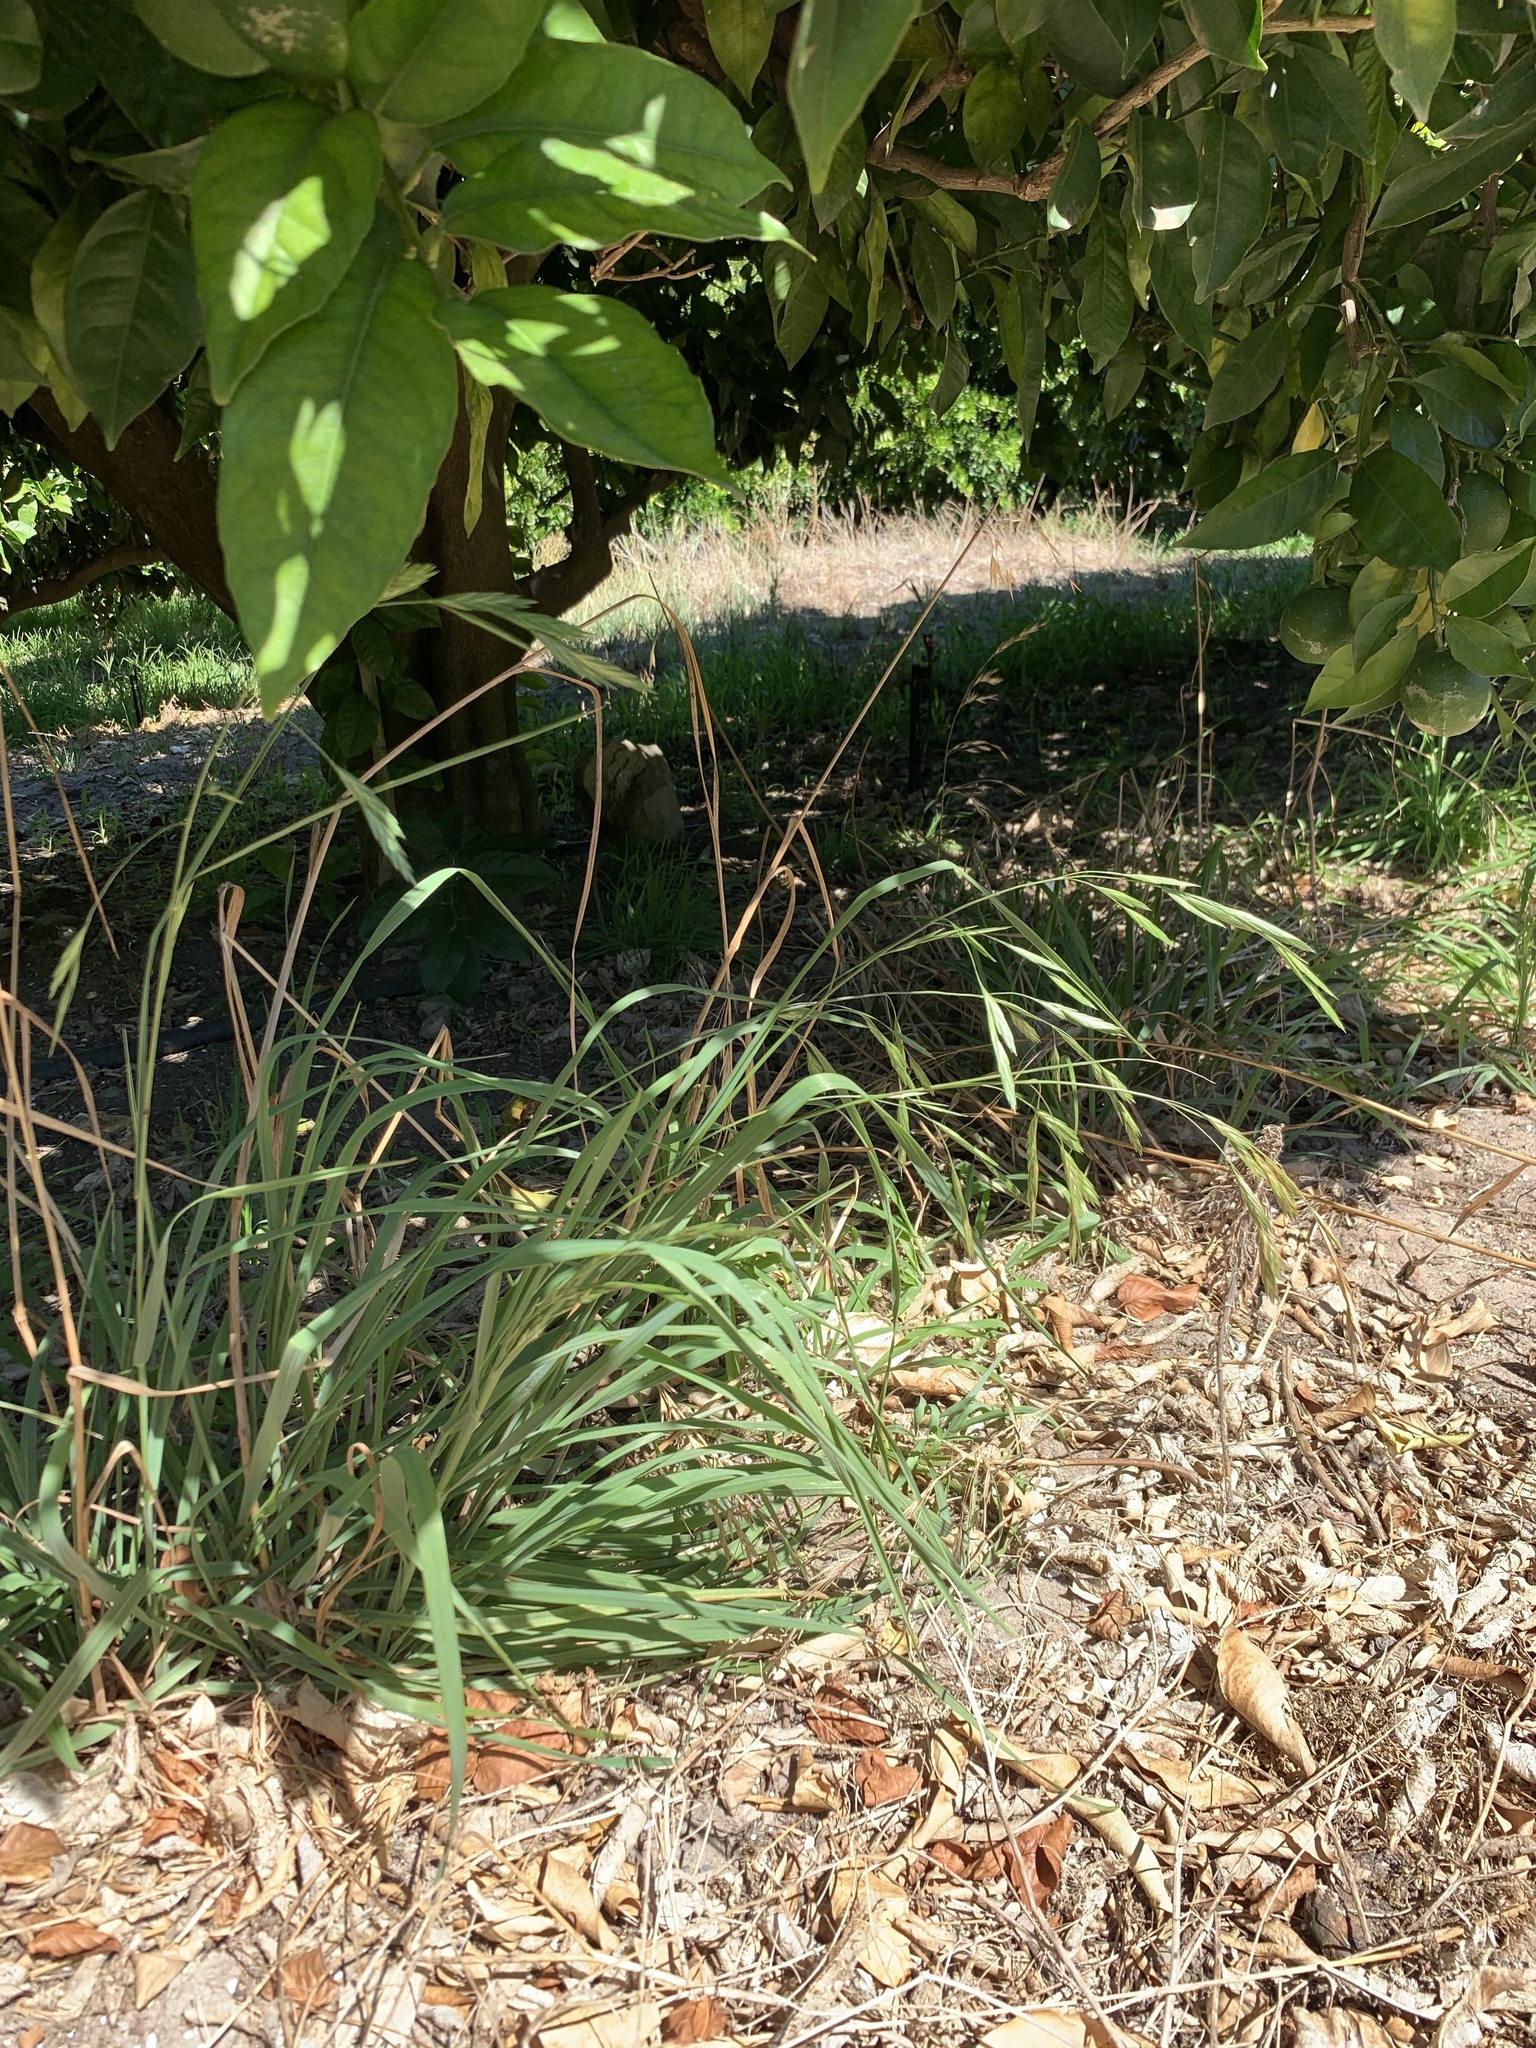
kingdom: Plantae
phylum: Tracheophyta
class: Liliopsida
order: Poales
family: Poaceae
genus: Bromus
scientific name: Bromus catharticus
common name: Rescuegrass
